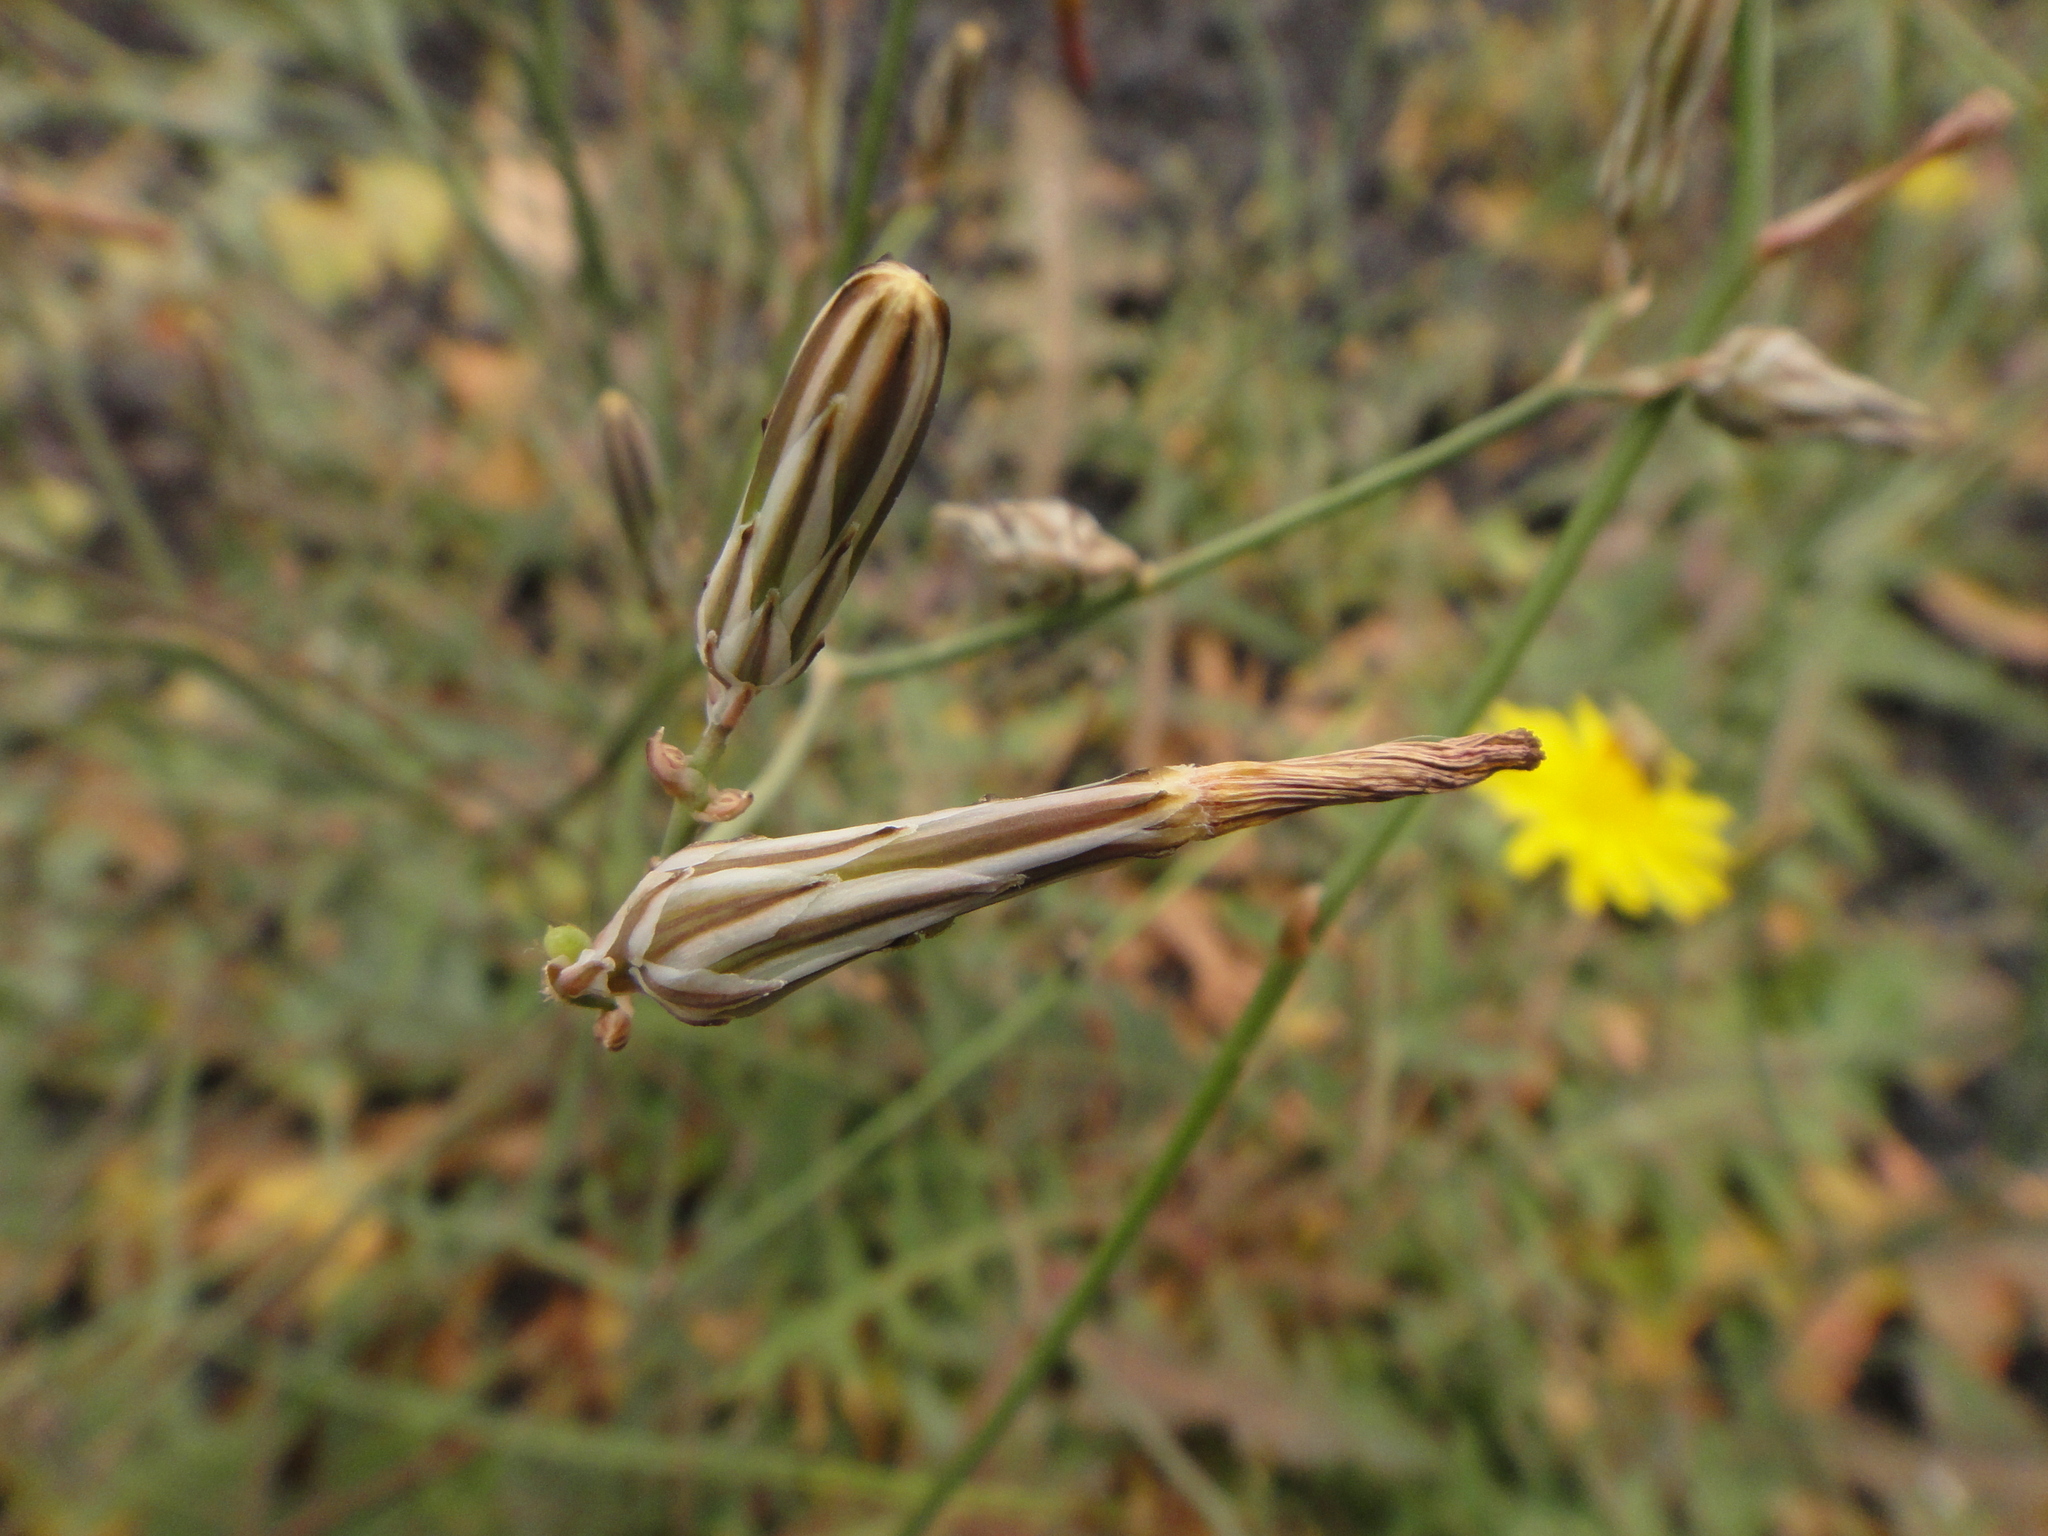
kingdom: Plantae
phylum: Tracheophyta
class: Magnoliopsida
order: Asterales
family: Asteraceae
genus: Launaea
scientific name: Launaea nudicaulis
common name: Naked launaea
